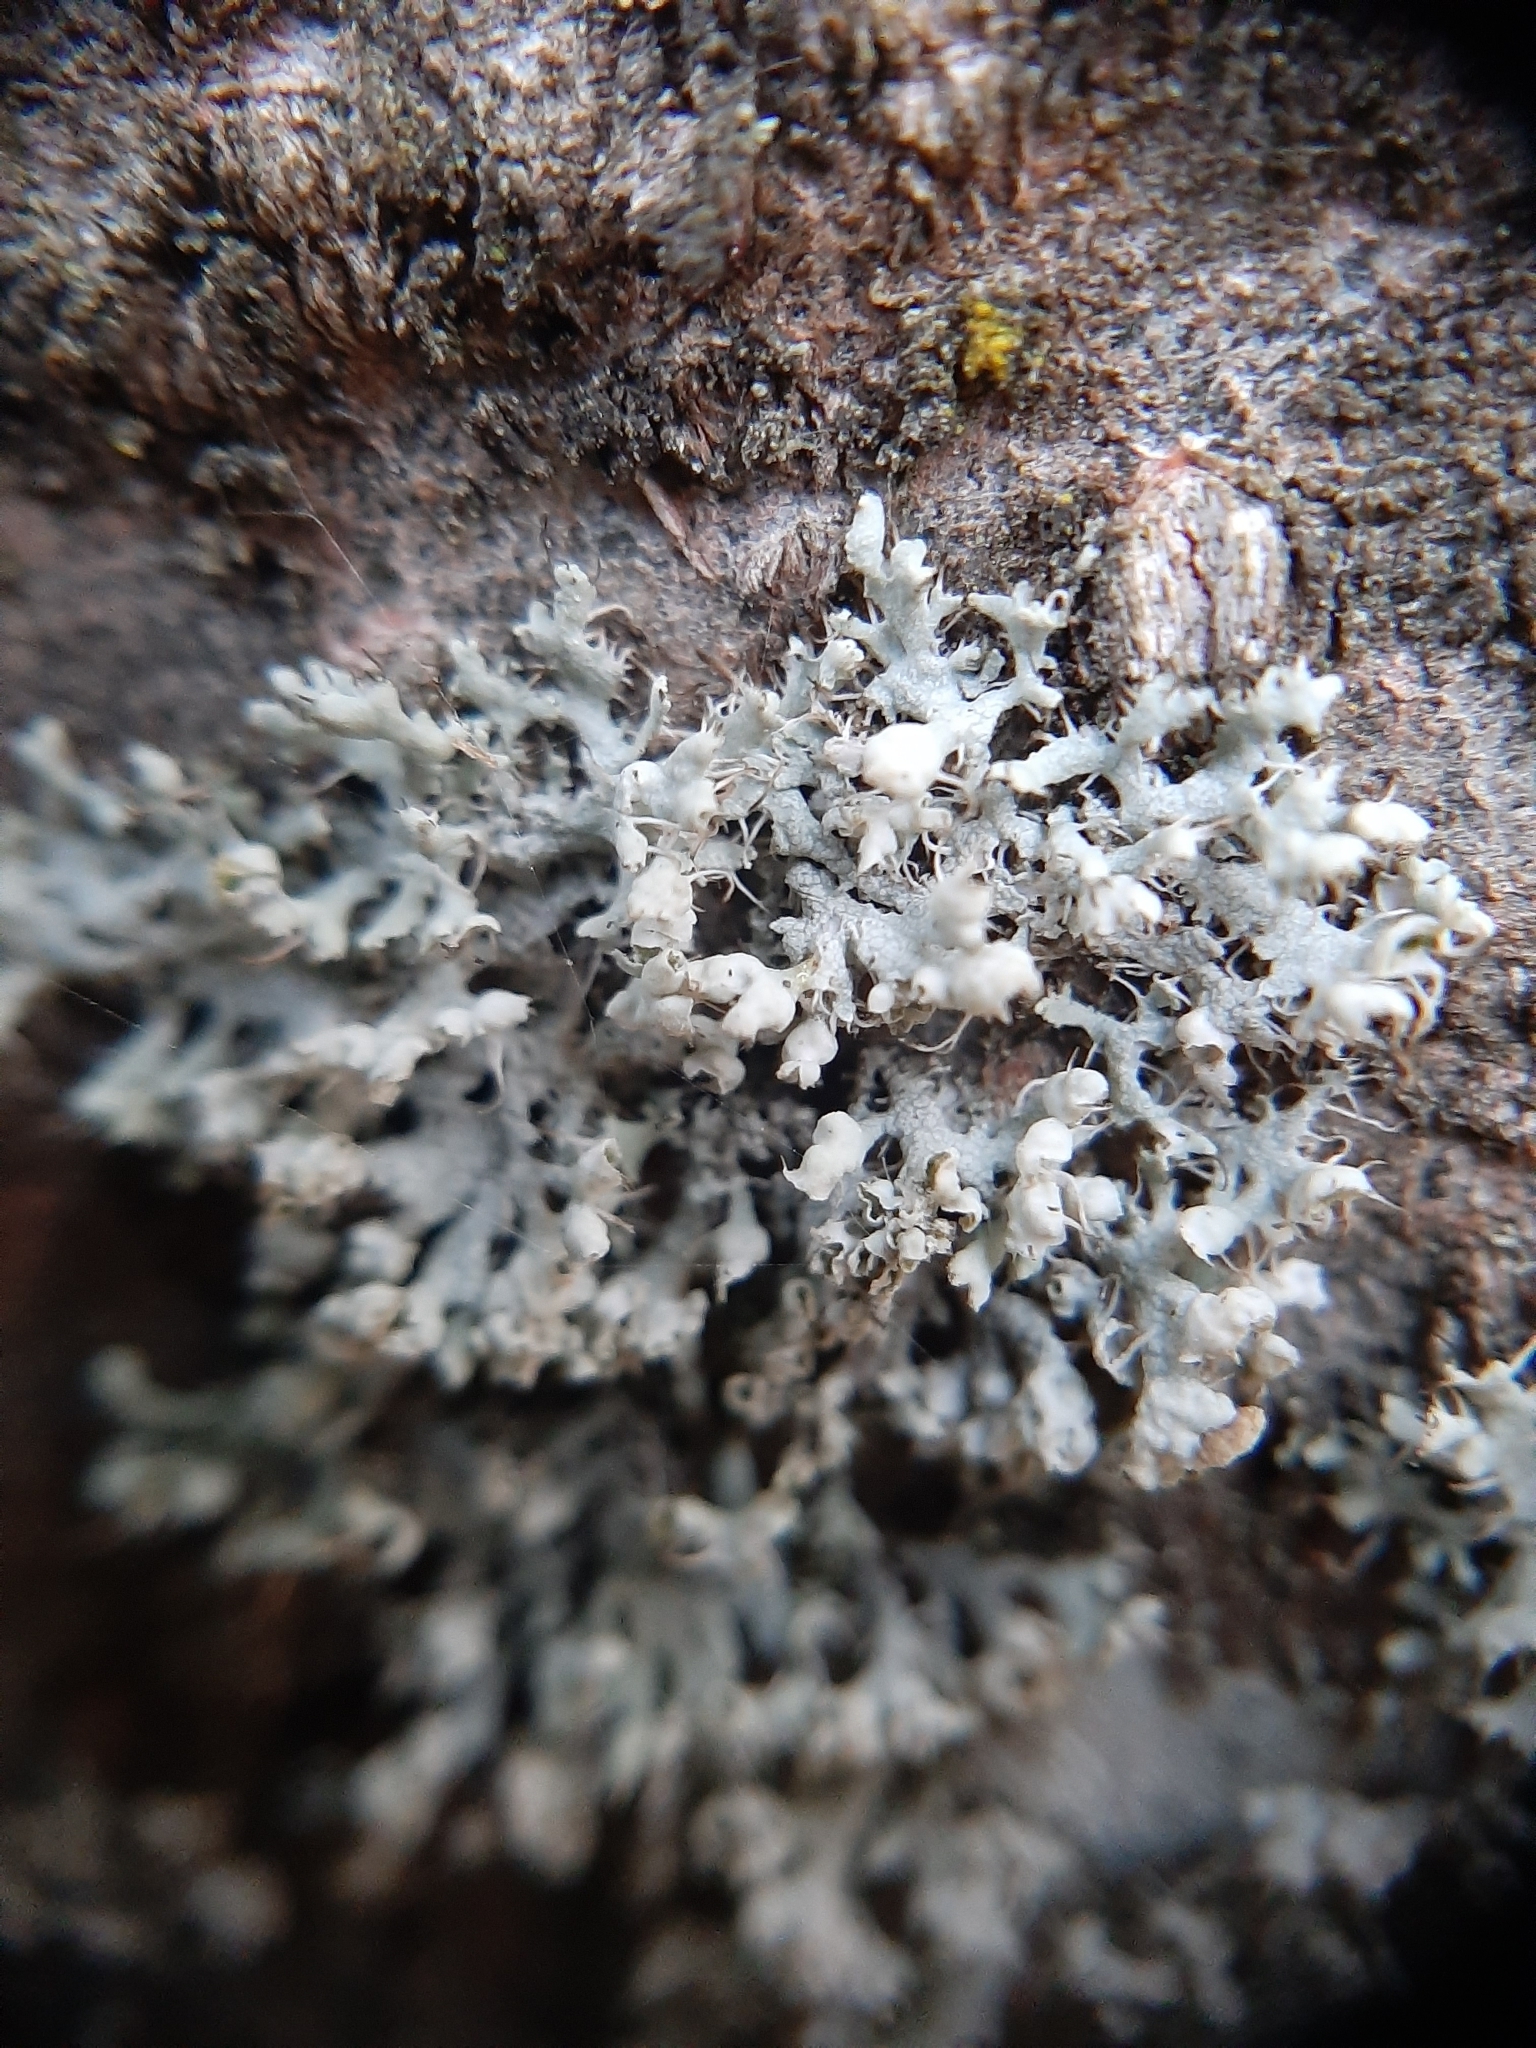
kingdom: Fungi
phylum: Ascomycota
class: Lecanoromycetes
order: Caliciales
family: Physciaceae
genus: Physcia
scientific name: Physcia adscendens
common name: Hooded rosette lichen
